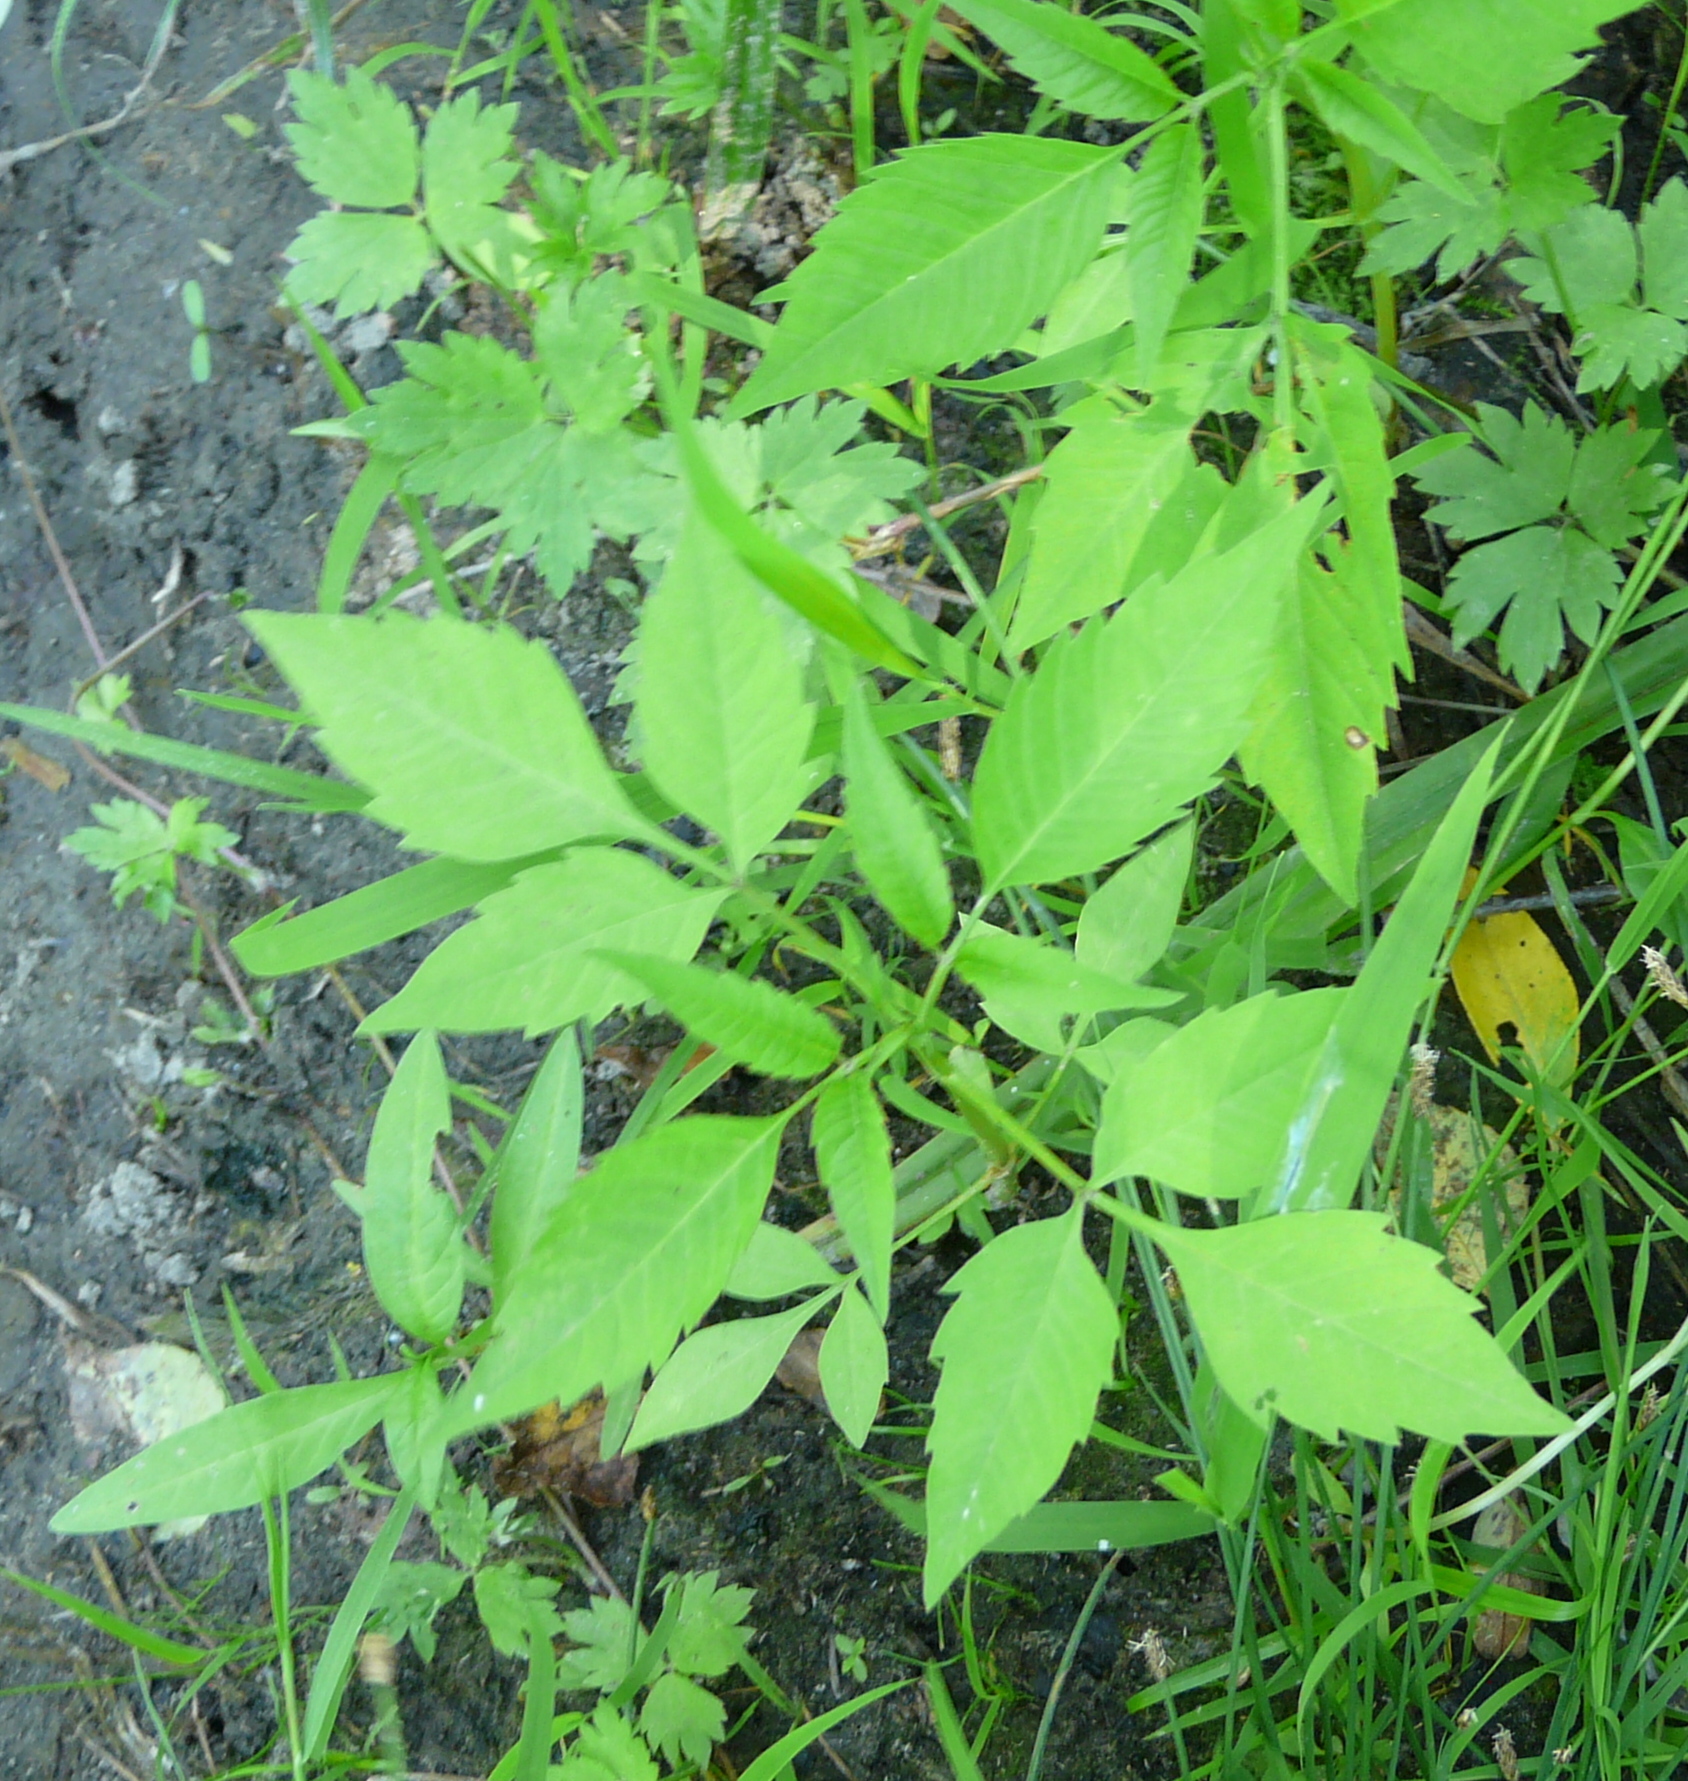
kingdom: Plantae
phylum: Tracheophyta
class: Magnoliopsida
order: Asterales
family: Asteraceae
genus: Bidens
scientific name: Bidens frondosa
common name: Beggarticks
